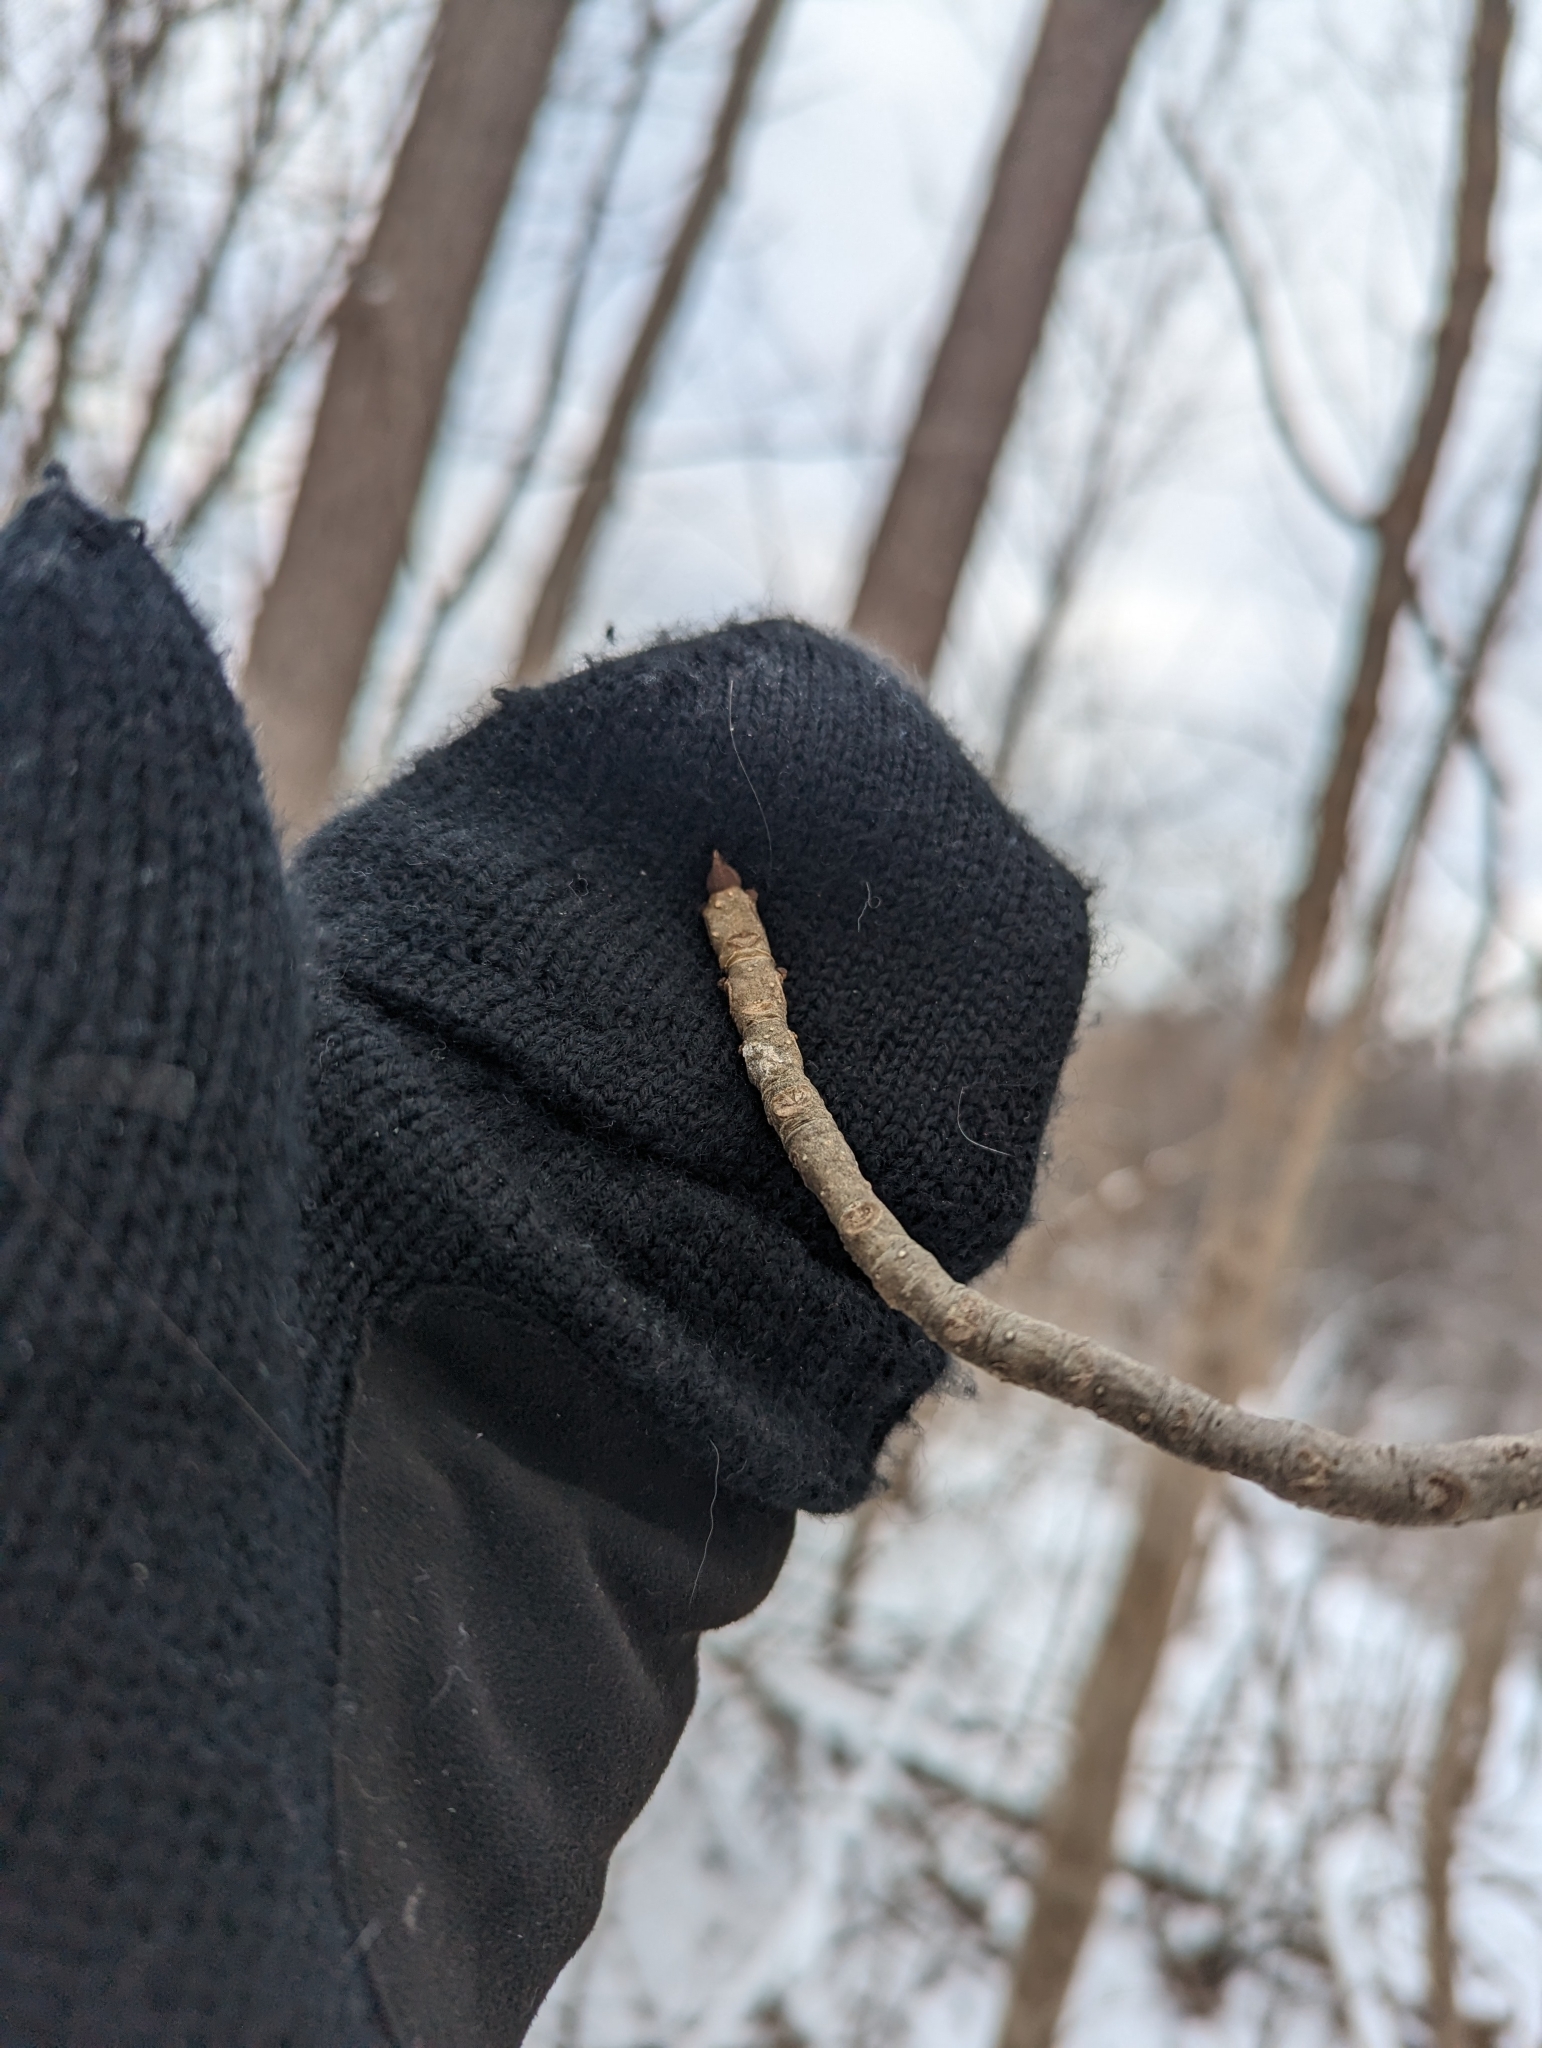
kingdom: Plantae
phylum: Tracheophyta
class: Magnoliopsida
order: Lamiales
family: Oleaceae
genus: Fraxinus
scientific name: Fraxinus nigra
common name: Black ash
